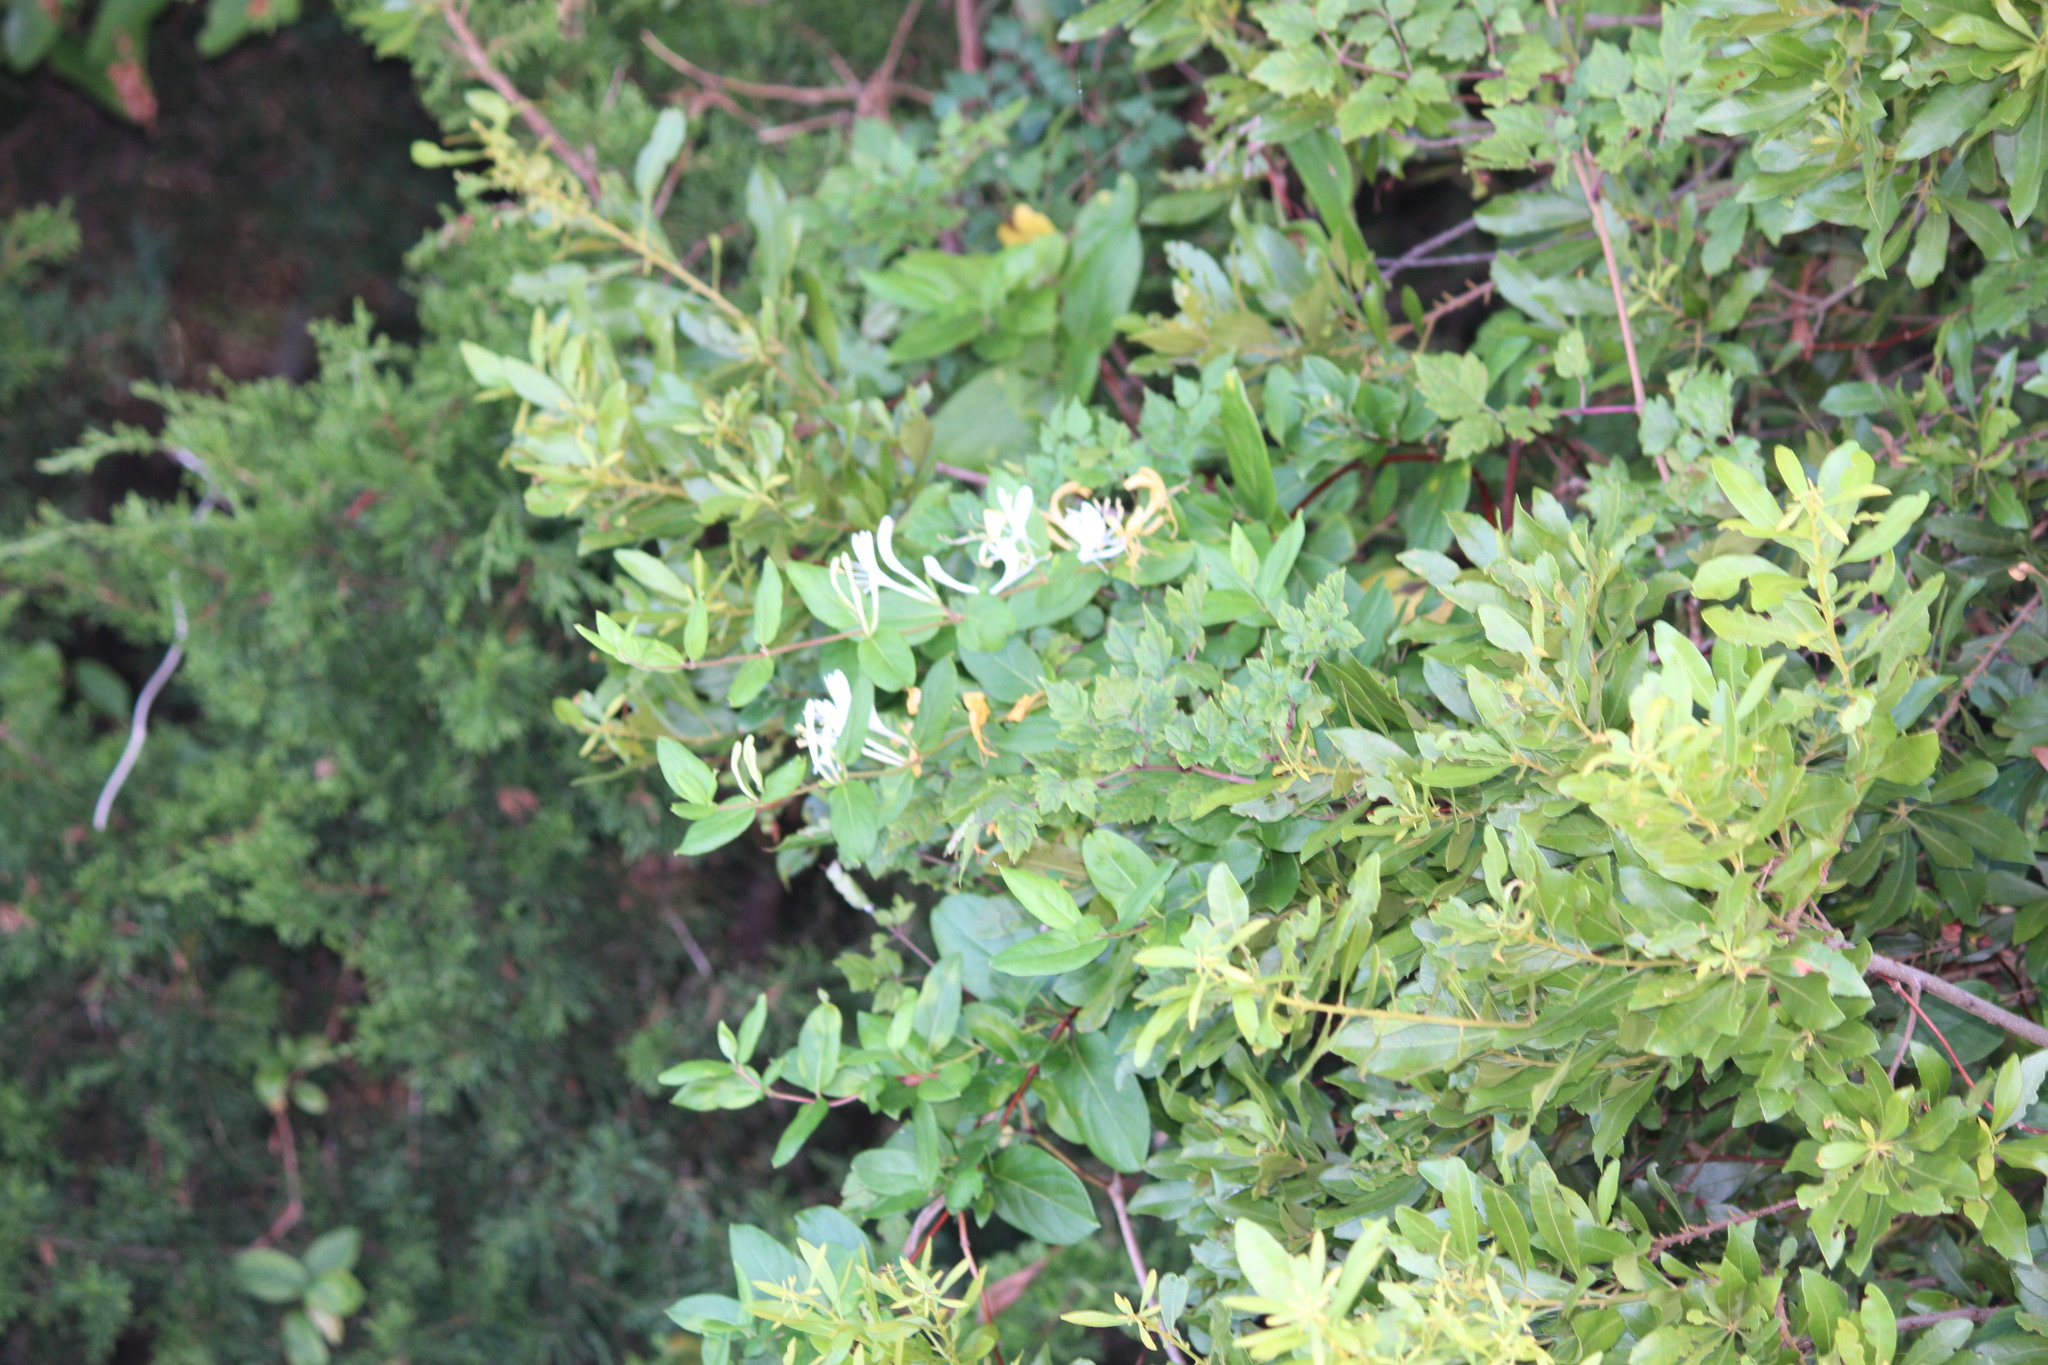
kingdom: Plantae
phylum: Tracheophyta
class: Magnoliopsida
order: Dipsacales
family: Caprifoliaceae
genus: Lonicera
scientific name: Lonicera japonica
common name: Japanese honeysuckle
